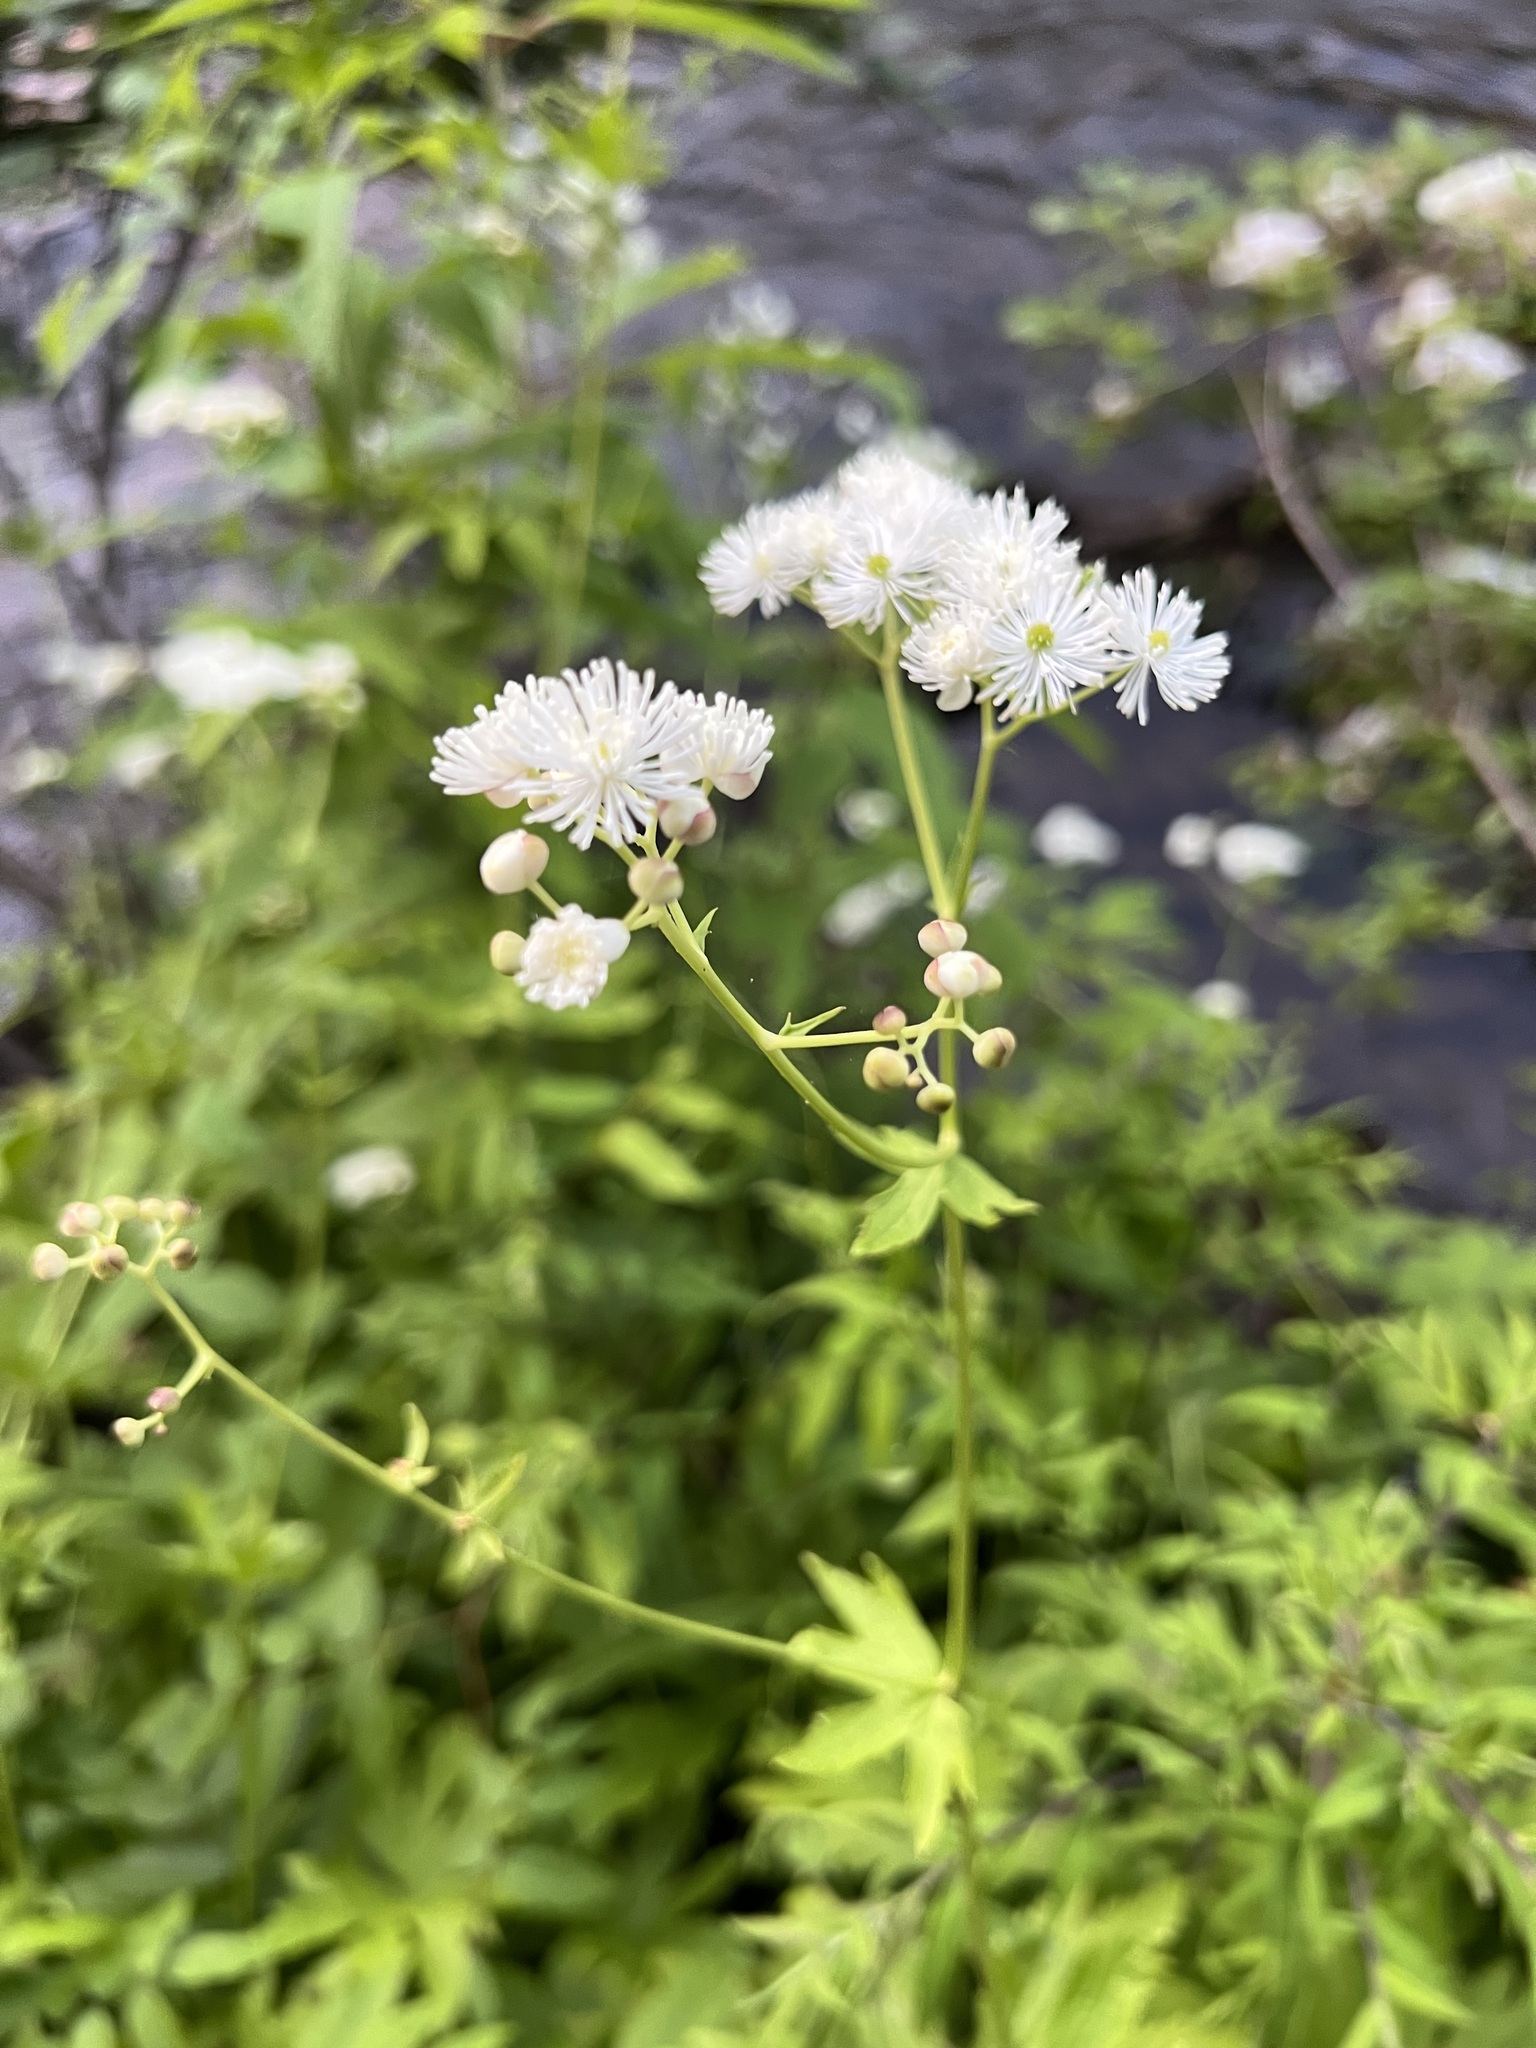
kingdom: Plantae
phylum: Tracheophyta
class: Magnoliopsida
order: Ranunculales
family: Ranunculaceae
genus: Trautvetteria
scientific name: Trautvetteria carolinensis
